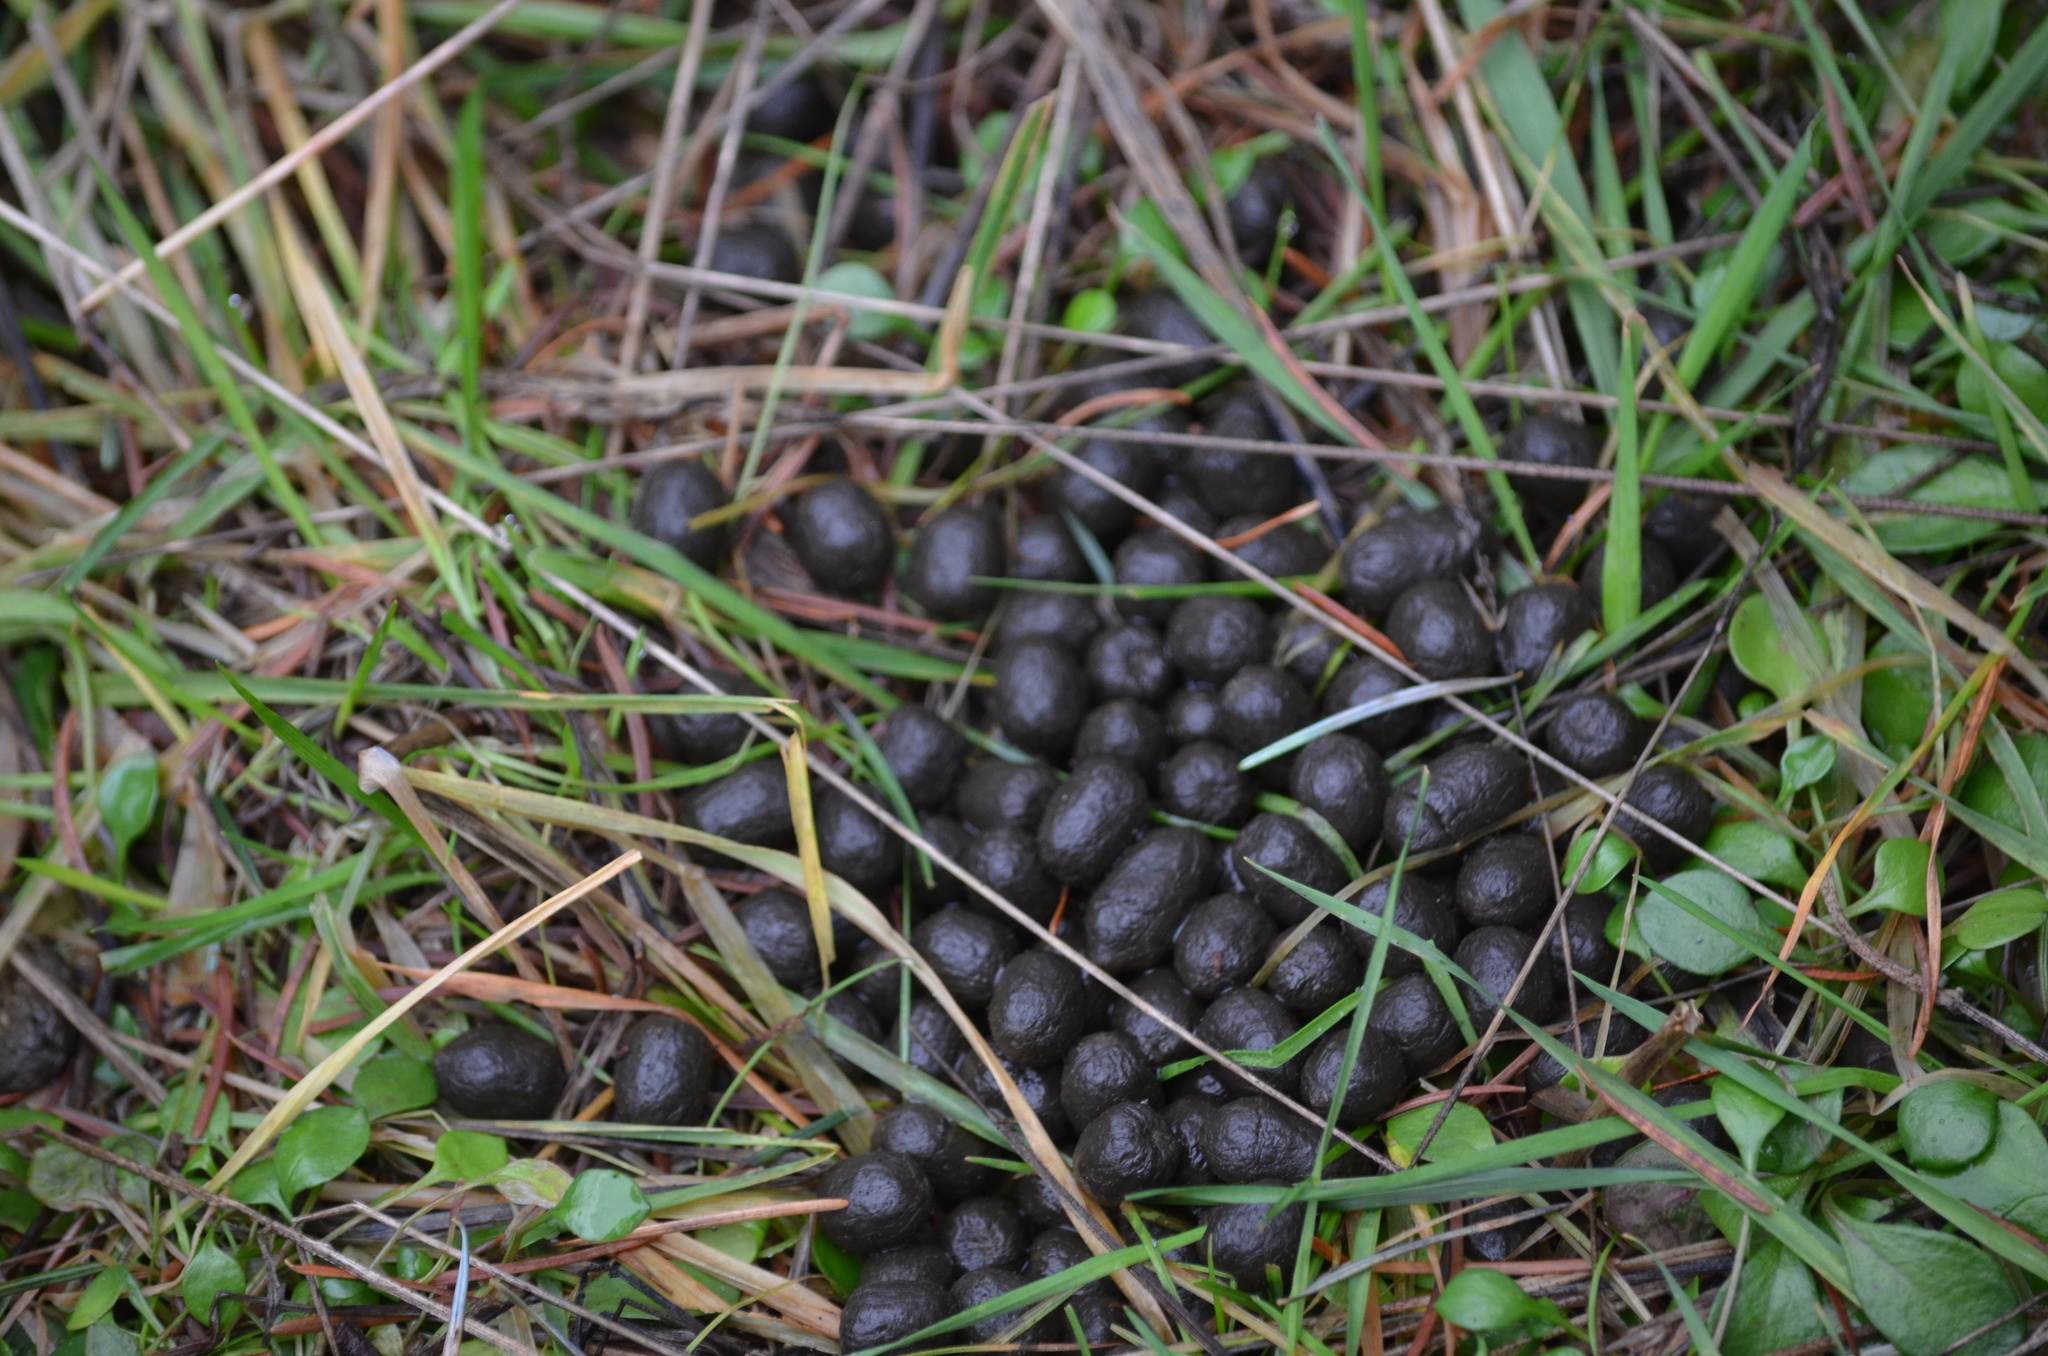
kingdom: Animalia
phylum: Chordata
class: Mammalia
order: Artiodactyla
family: Cervidae
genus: Odocoileus
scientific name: Odocoileus hemionus
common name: Mule deer
